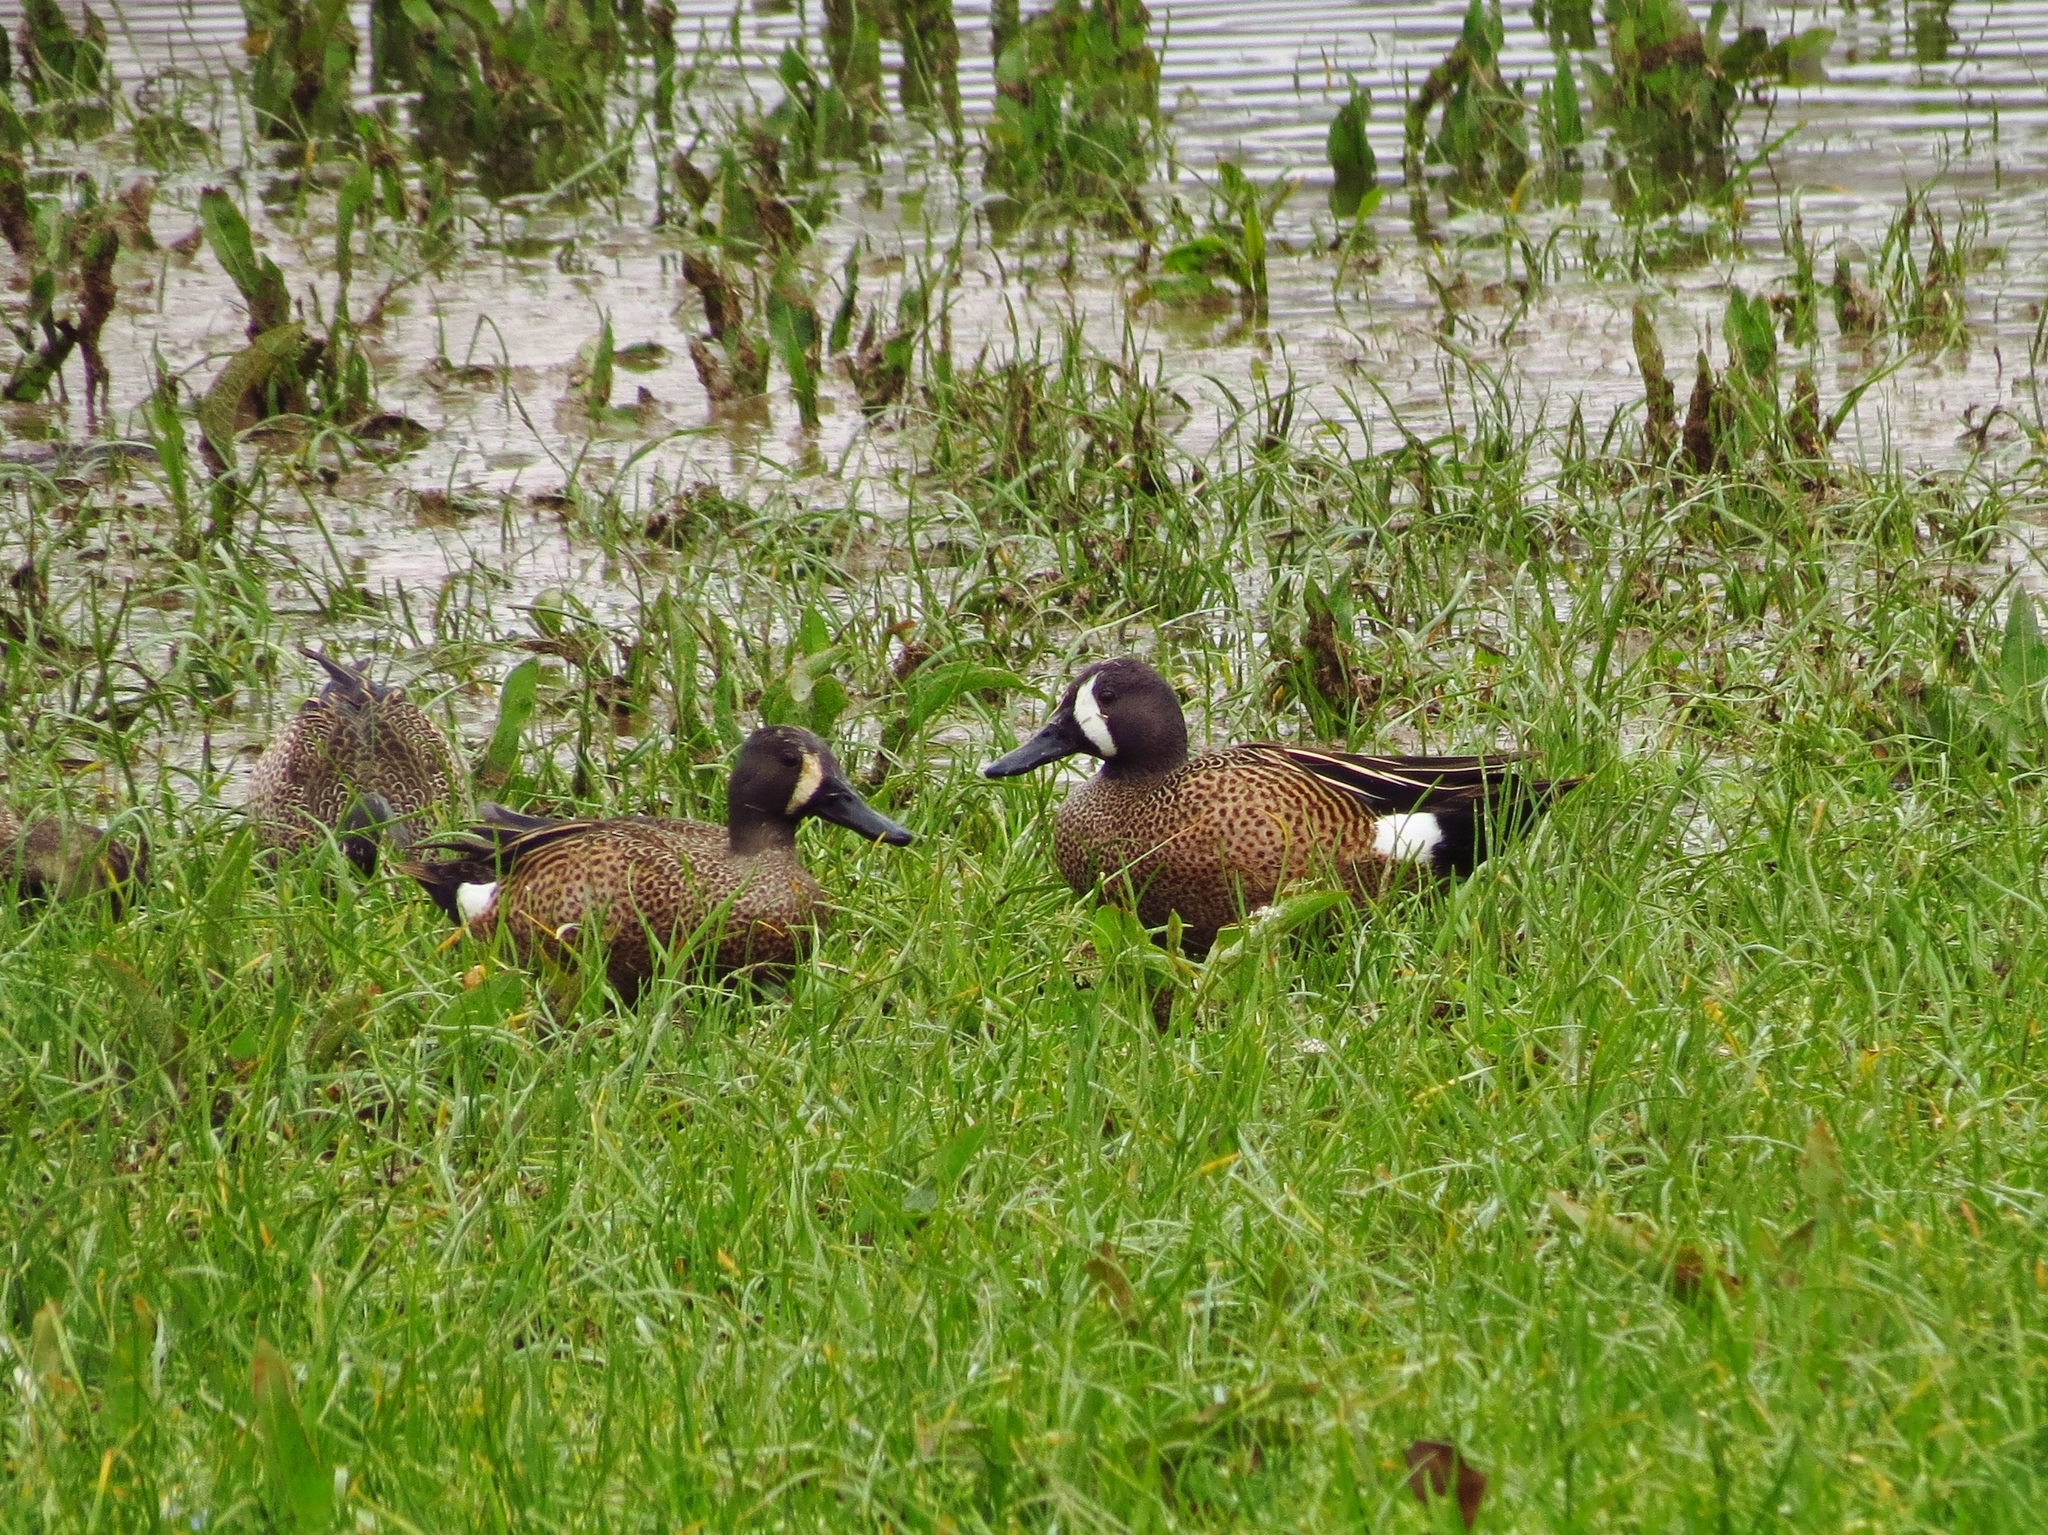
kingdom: Animalia
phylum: Chordata
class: Aves
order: Anseriformes
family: Anatidae
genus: Spatula
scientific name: Spatula discors
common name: Blue-winged teal
